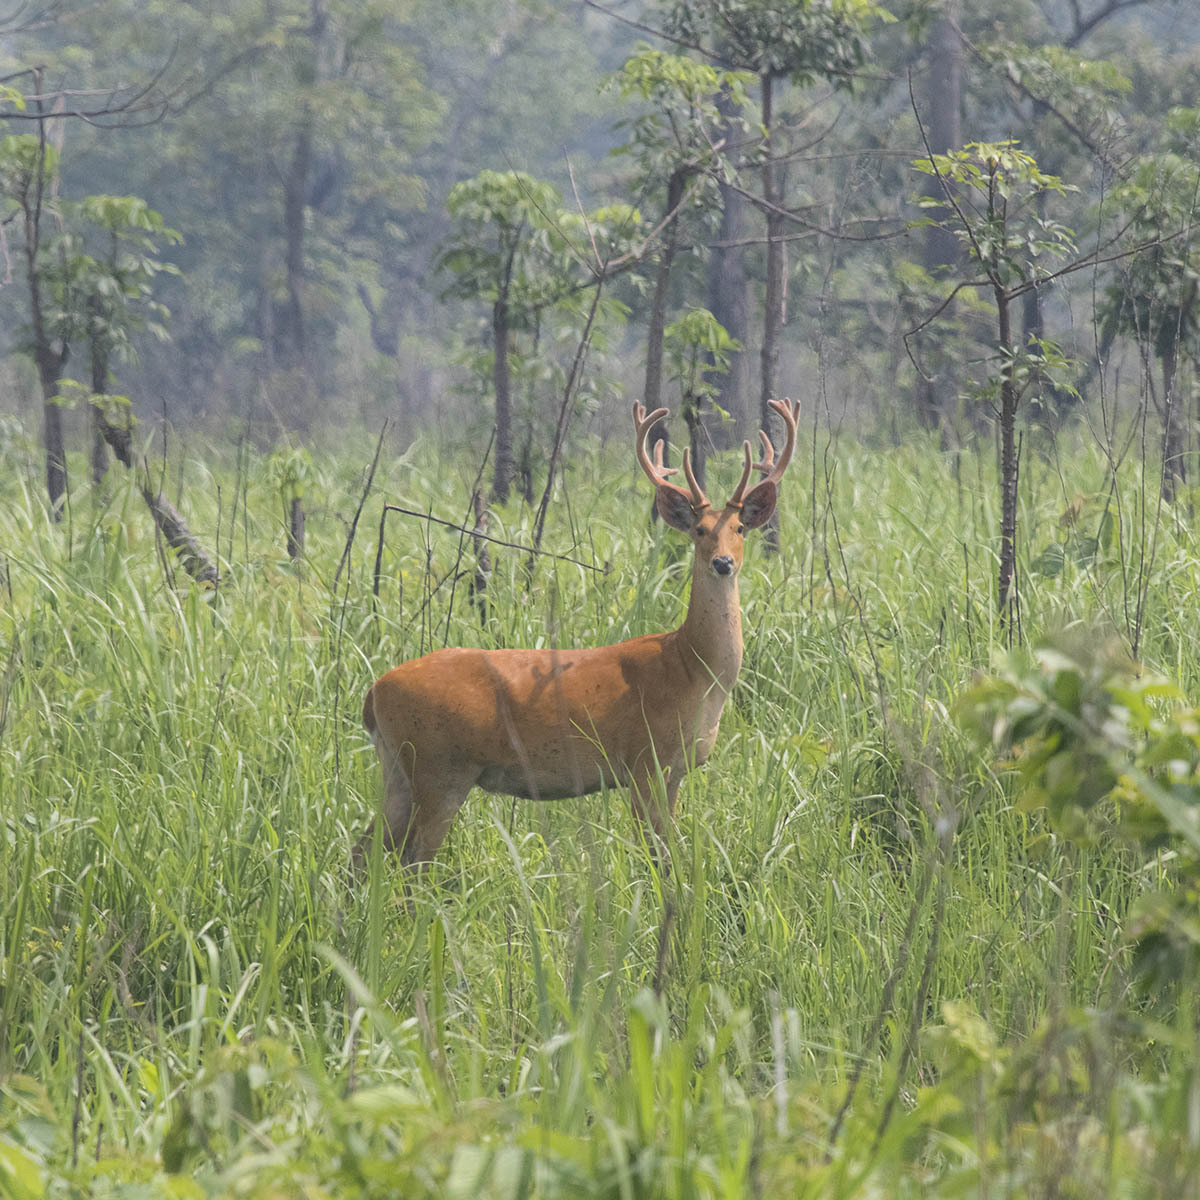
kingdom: Animalia
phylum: Chordata
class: Mammalia
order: Artiodactyla
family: Cervidae
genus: Rucervus
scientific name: Rucervus duvaucelii
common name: Barasingha
